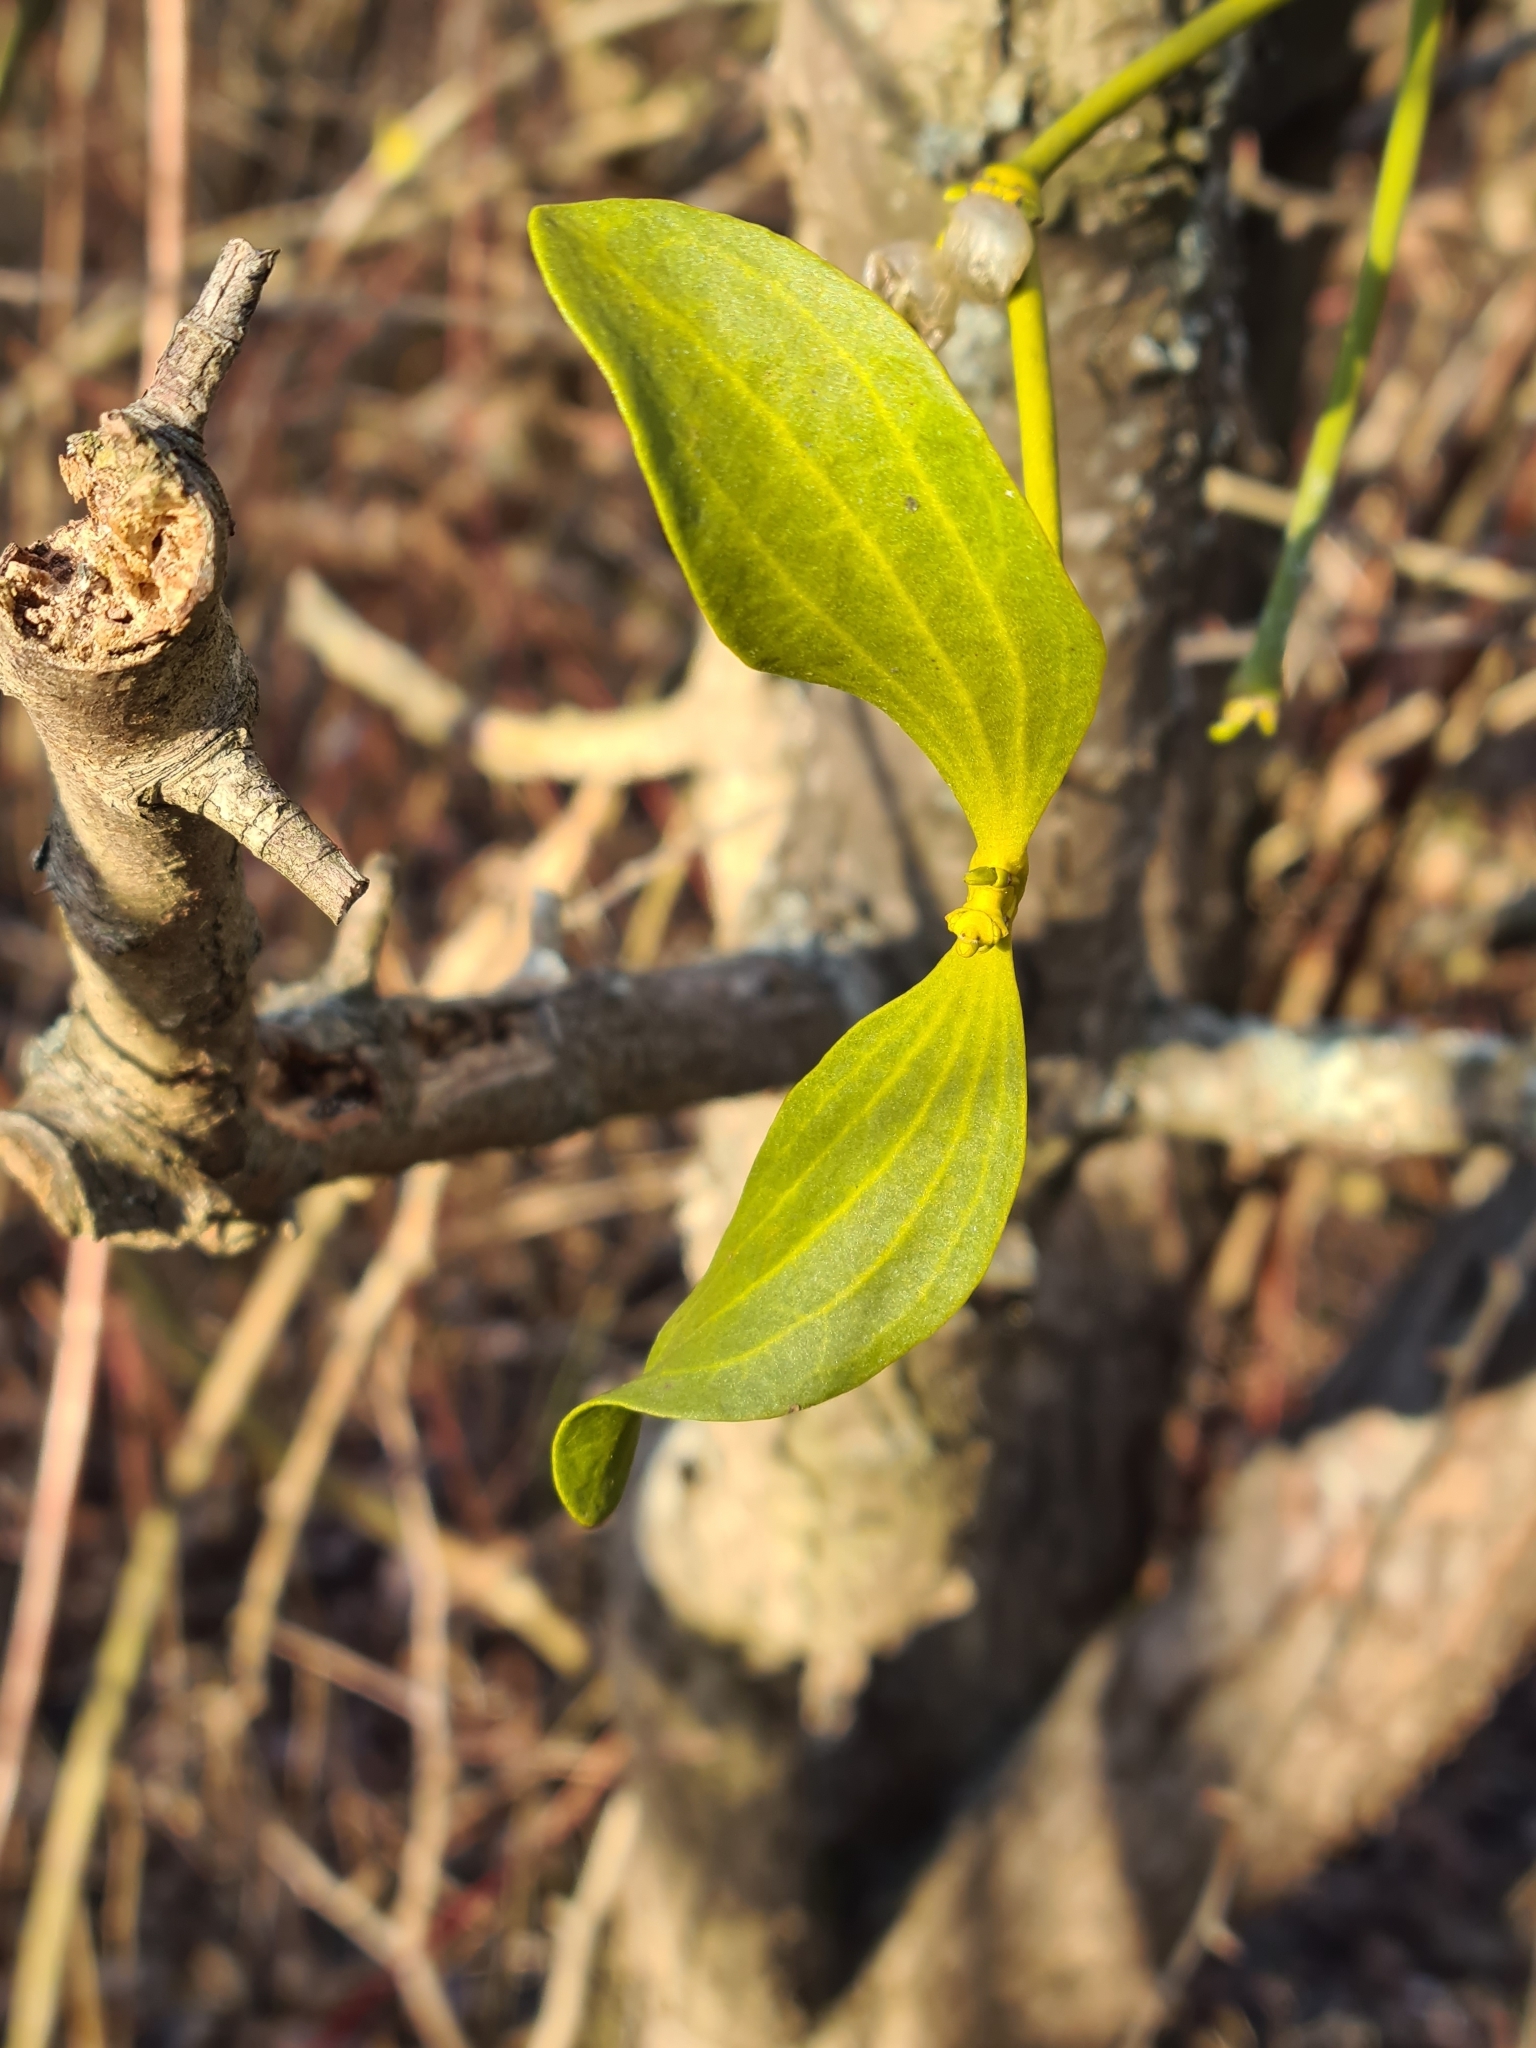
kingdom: Plantae
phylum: Tracheophyta
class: Magnoliopsida
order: Santalales
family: Viscaceae
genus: Viscum
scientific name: Viscum album
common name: Mistletoe
